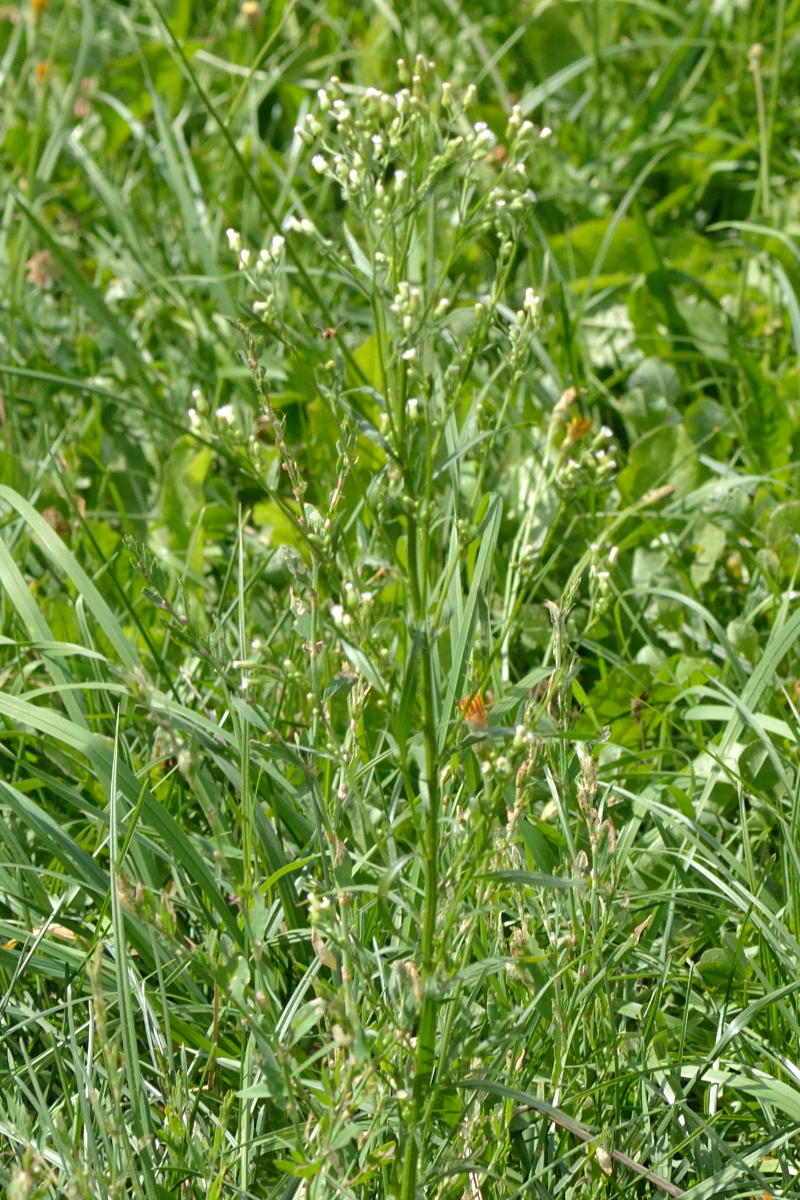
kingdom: Plantae
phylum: Tracheophyta
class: Magnoliopsida
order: Asterales
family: Asteraceae
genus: Erigeron
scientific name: Erigeron canadensis
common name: Canadian fleabane
